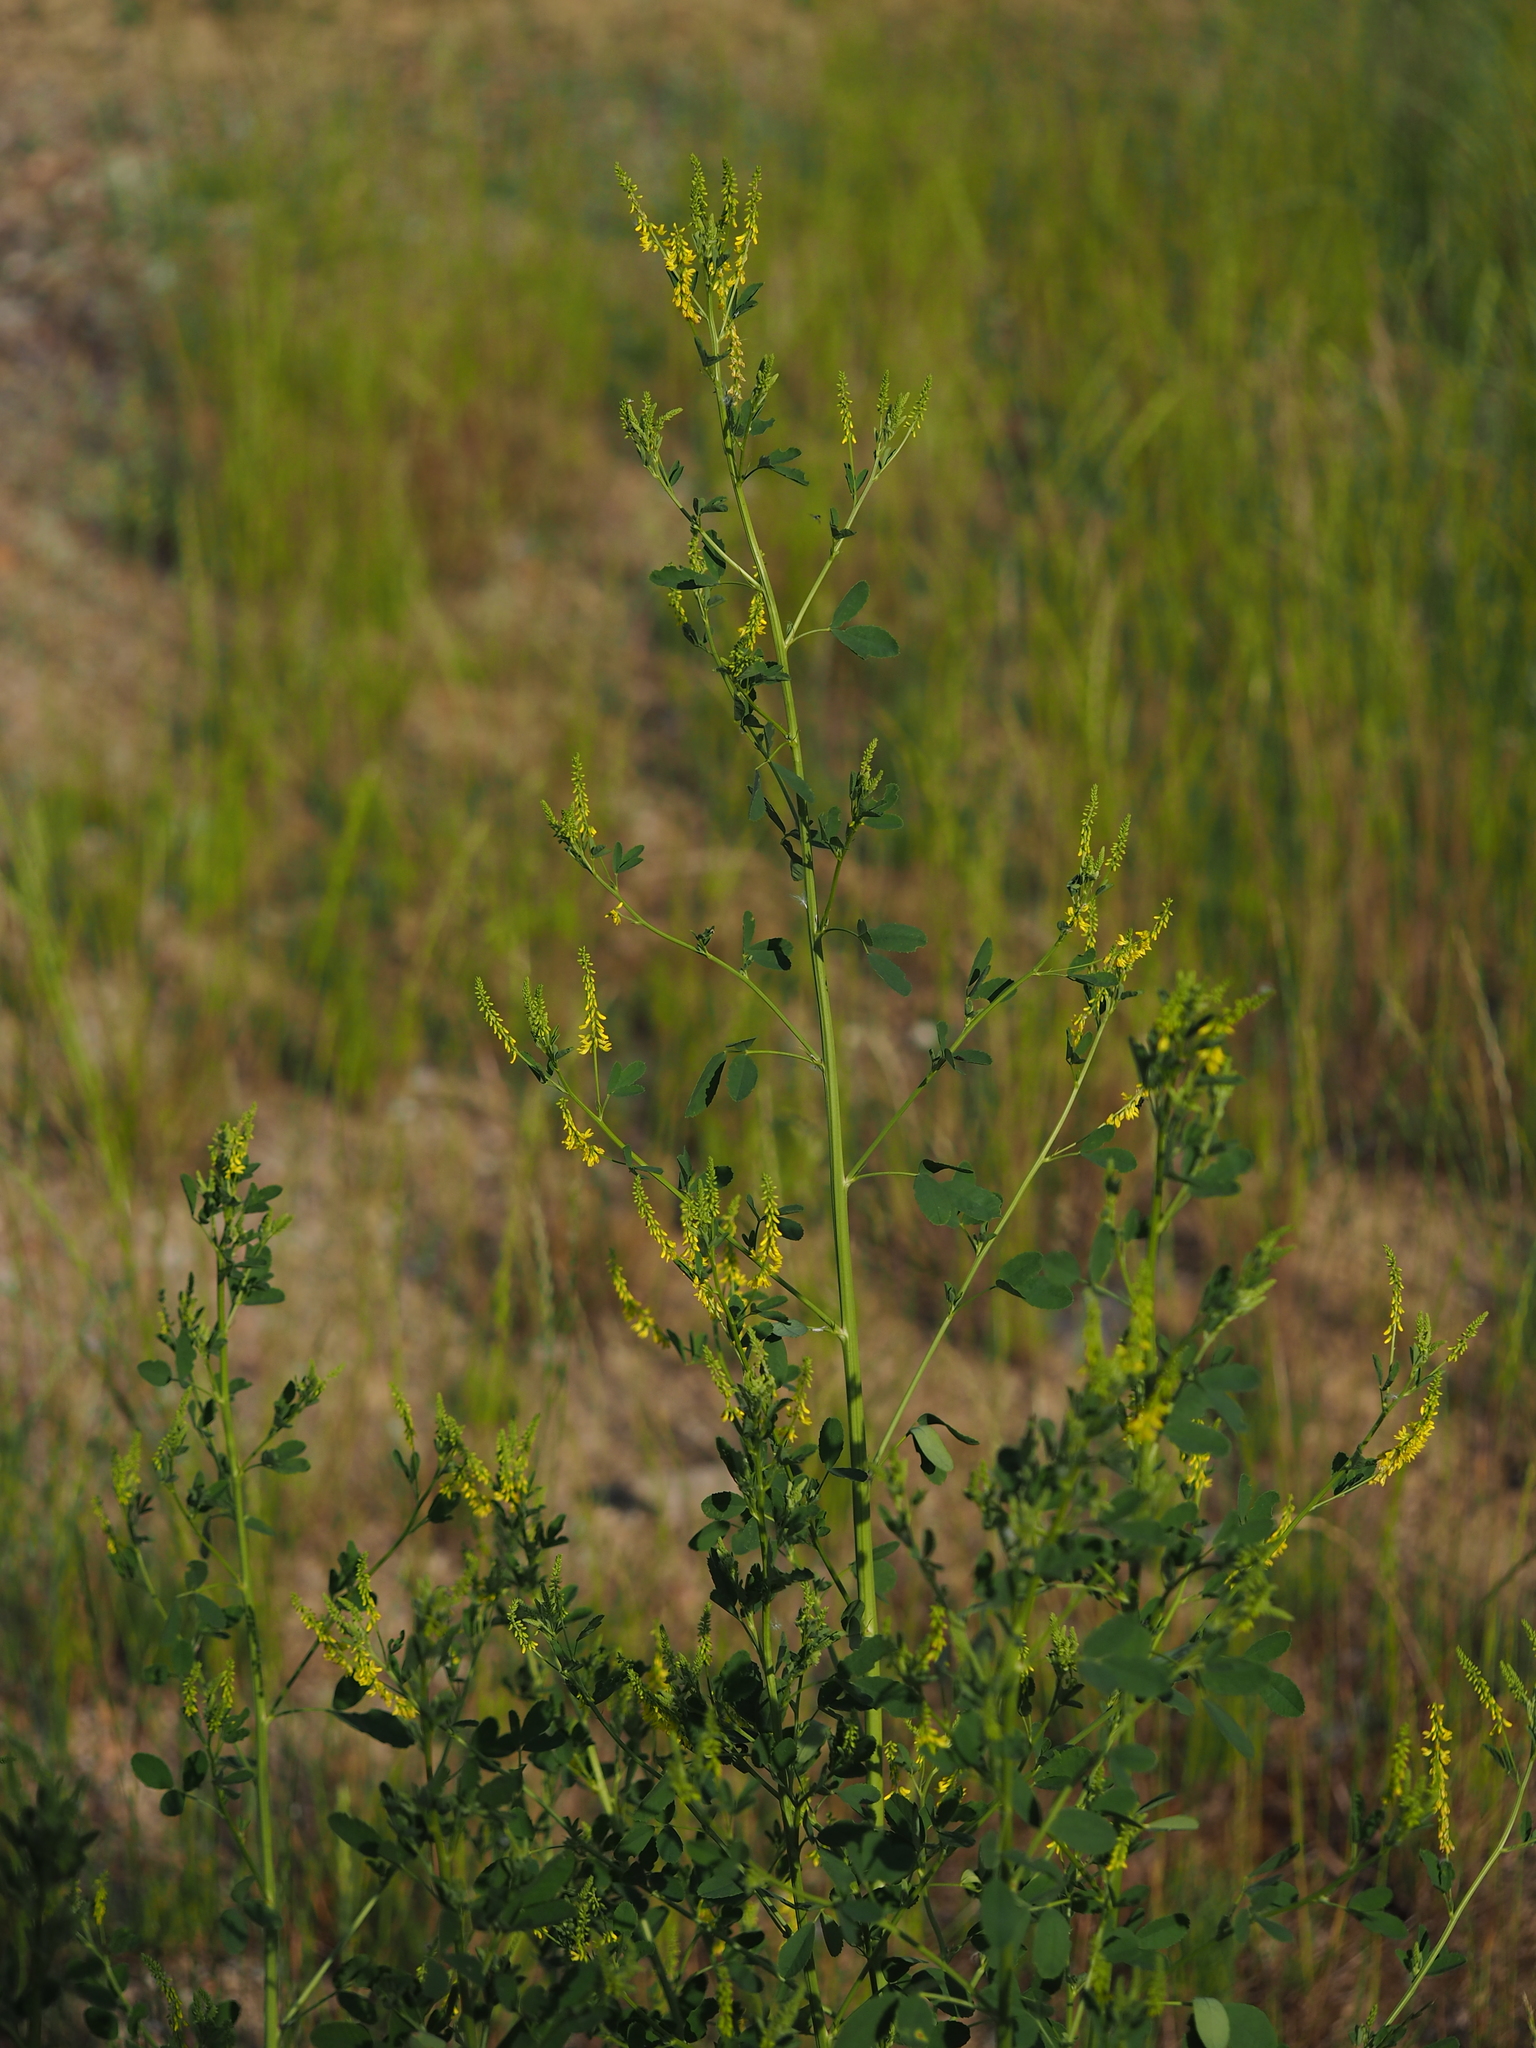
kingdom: Plantae
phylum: Tracheophyta
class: Magnoliopsida
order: Fabales
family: Fabaceae
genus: Melilotus
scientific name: Melilotus officinalis
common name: Sweetclover
